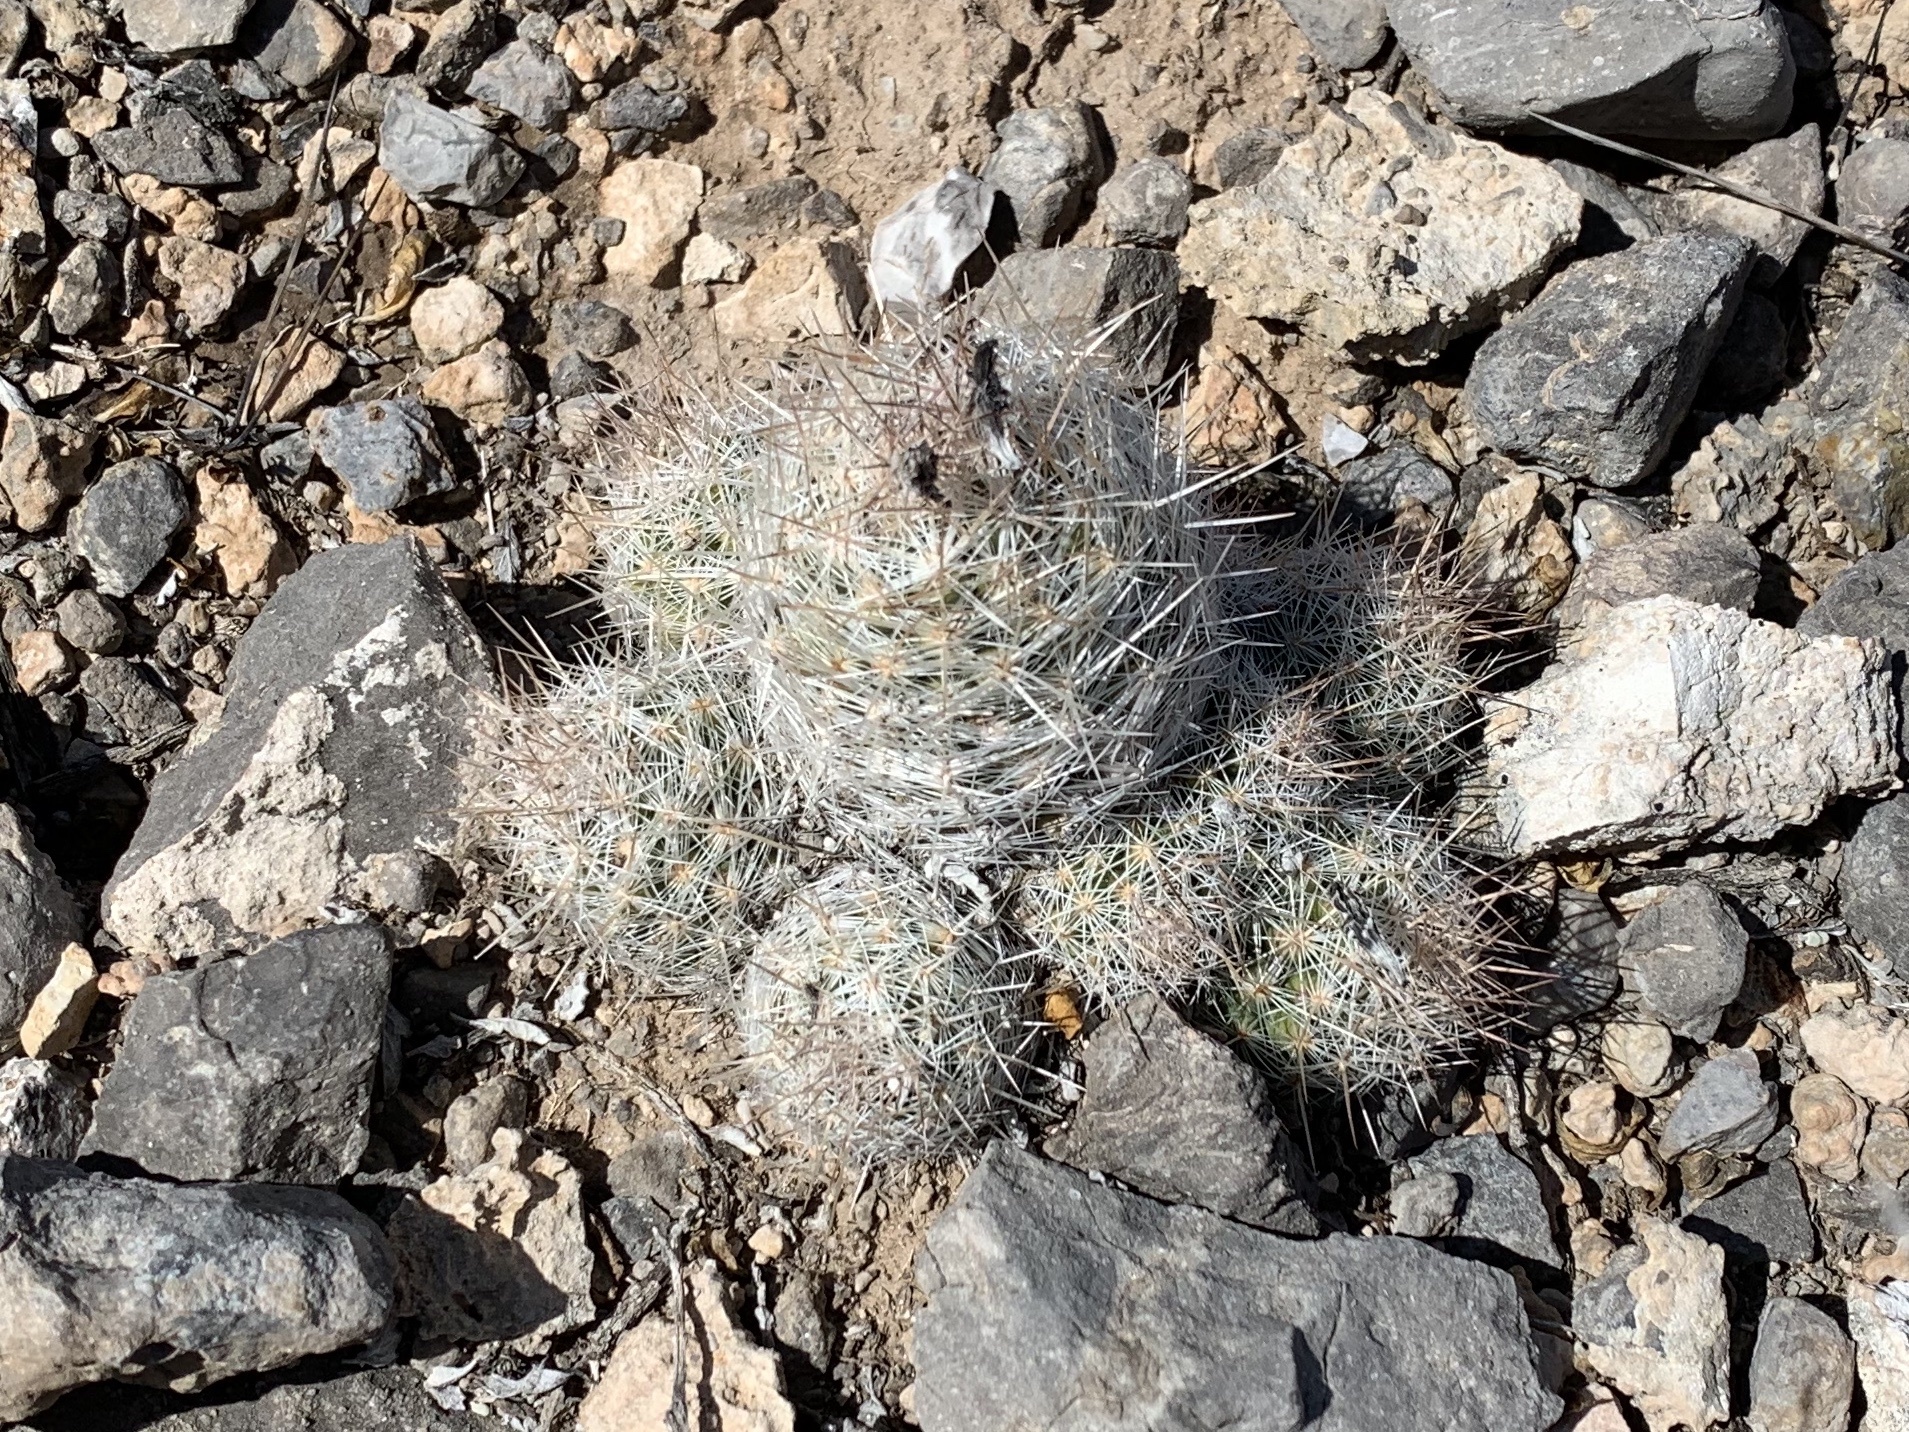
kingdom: Plantae
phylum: Tracheophyta
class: Magnoliopsida
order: Caryophyllales
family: Cactaceae
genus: Pelecyphora
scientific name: Pelecyphora tuberculosa
